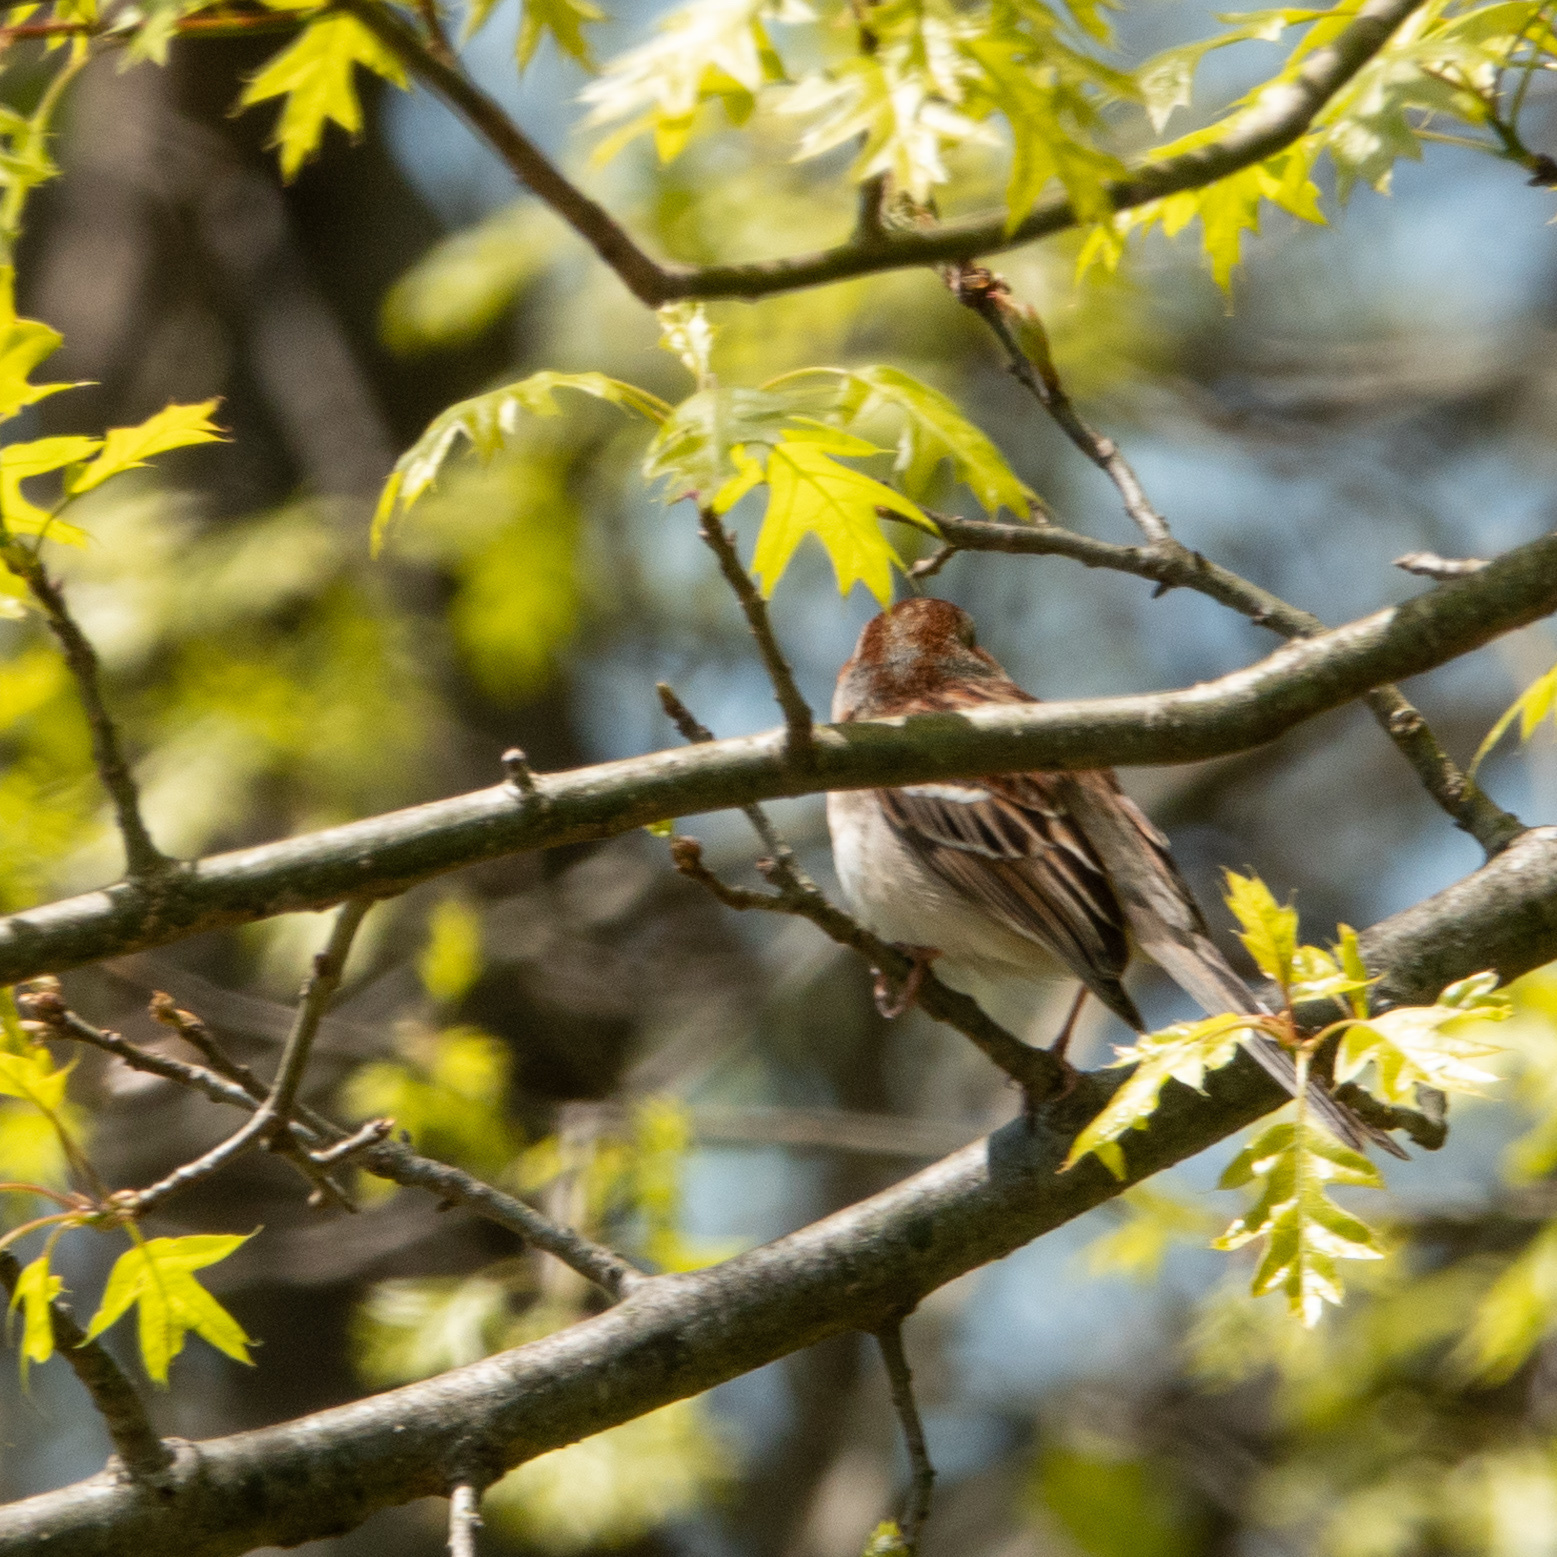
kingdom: Animalia
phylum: Chordata
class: Aves
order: Passeriformes
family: Passerellidae
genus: Spizella
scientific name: Spizella pusilla
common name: Field sparrow
